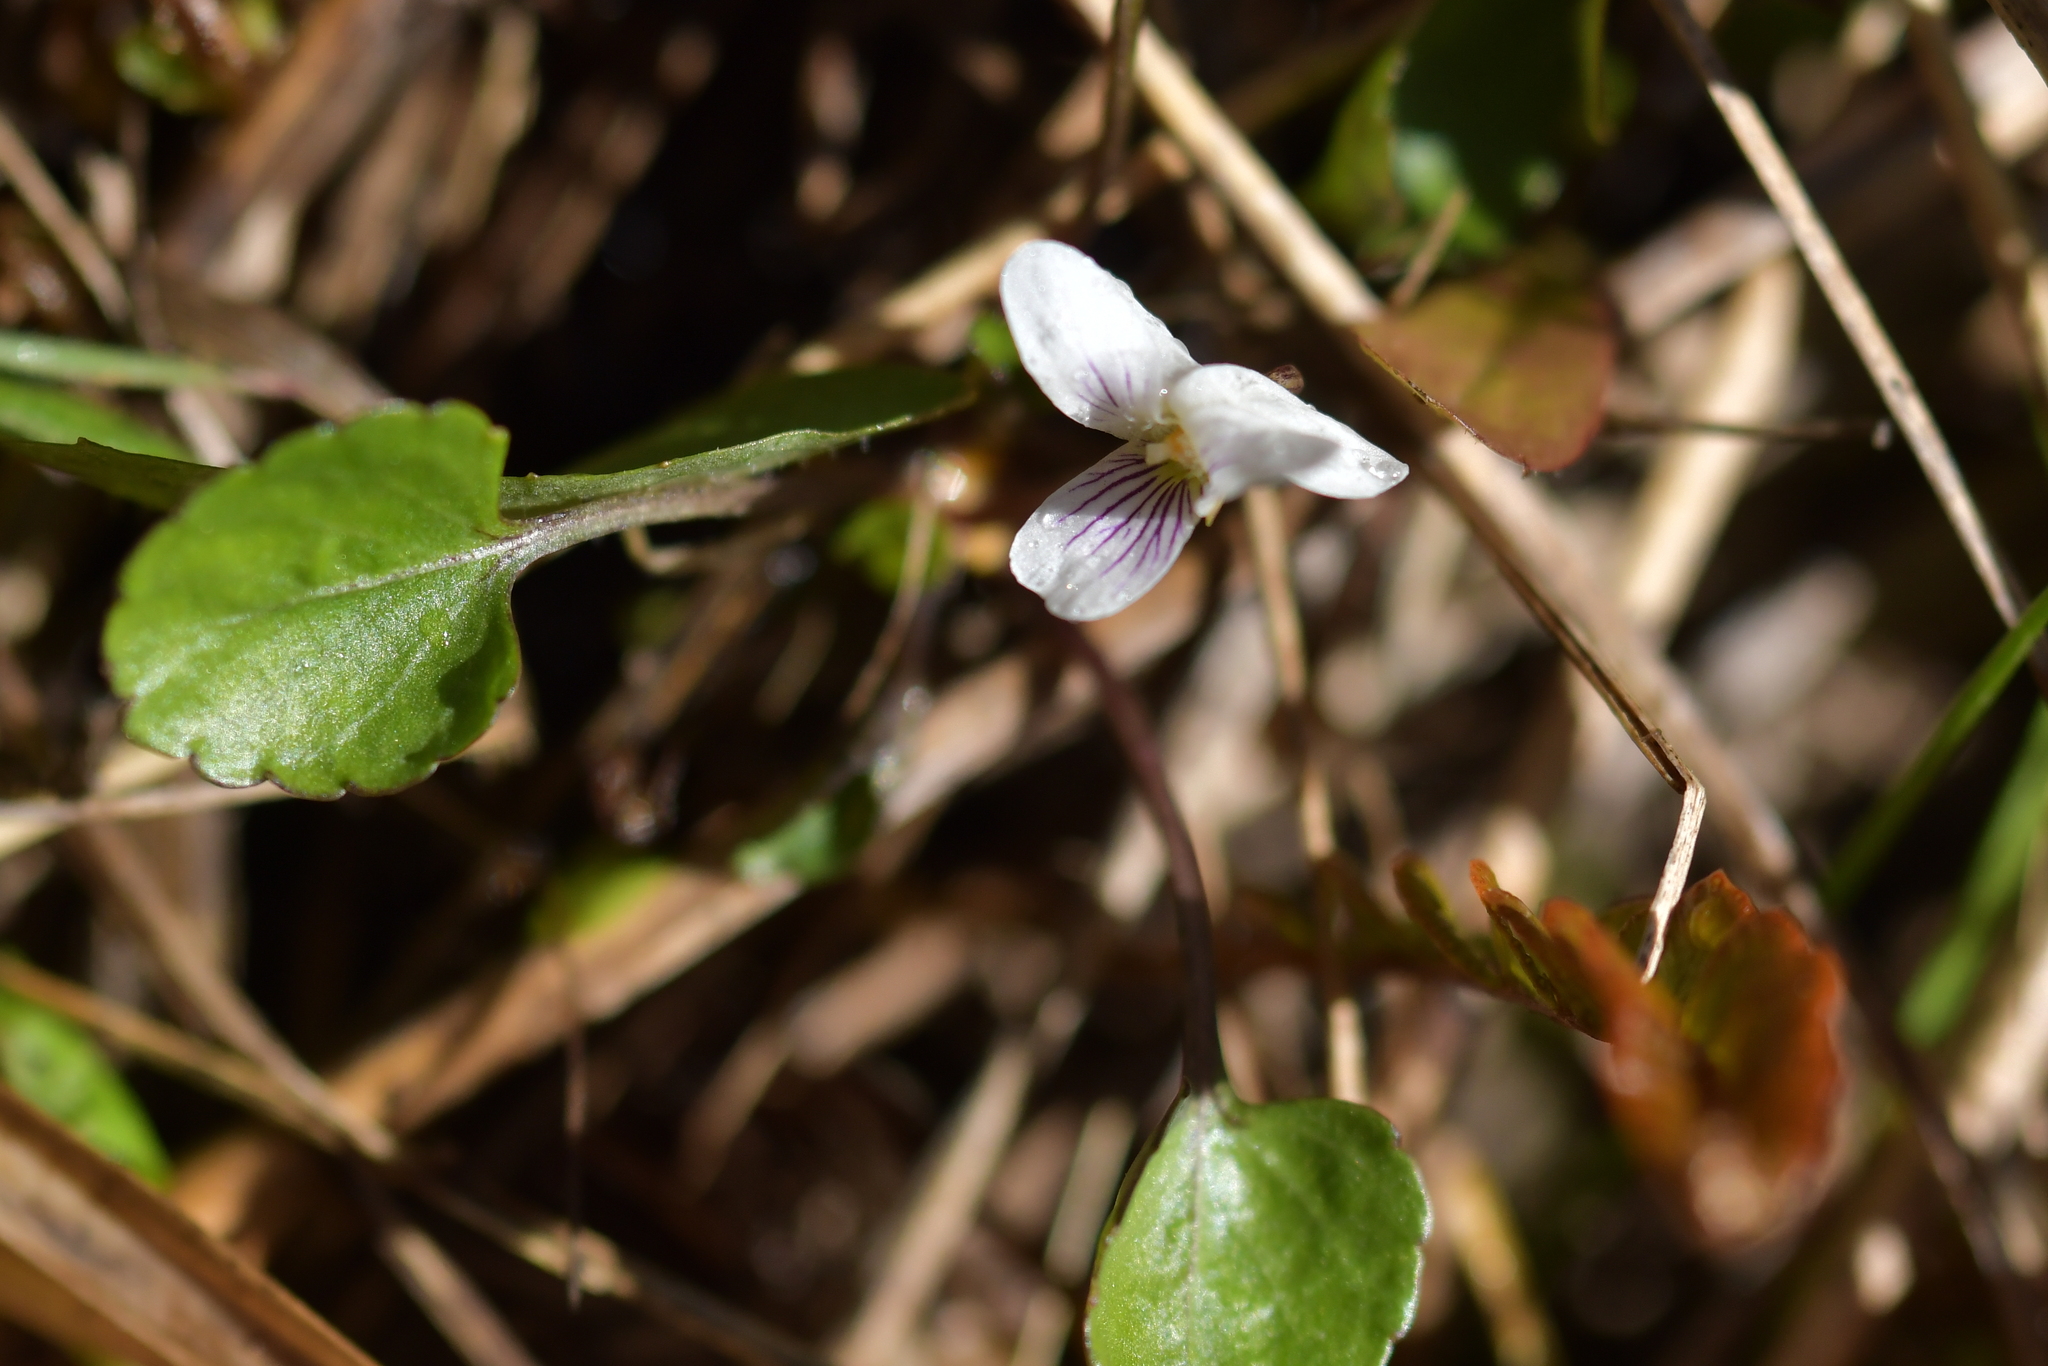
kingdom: Plantae
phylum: Tracheophyta
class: Magnoliopsida
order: Malpighiales
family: Violaceae
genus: Viola
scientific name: Viola cunninghamii
